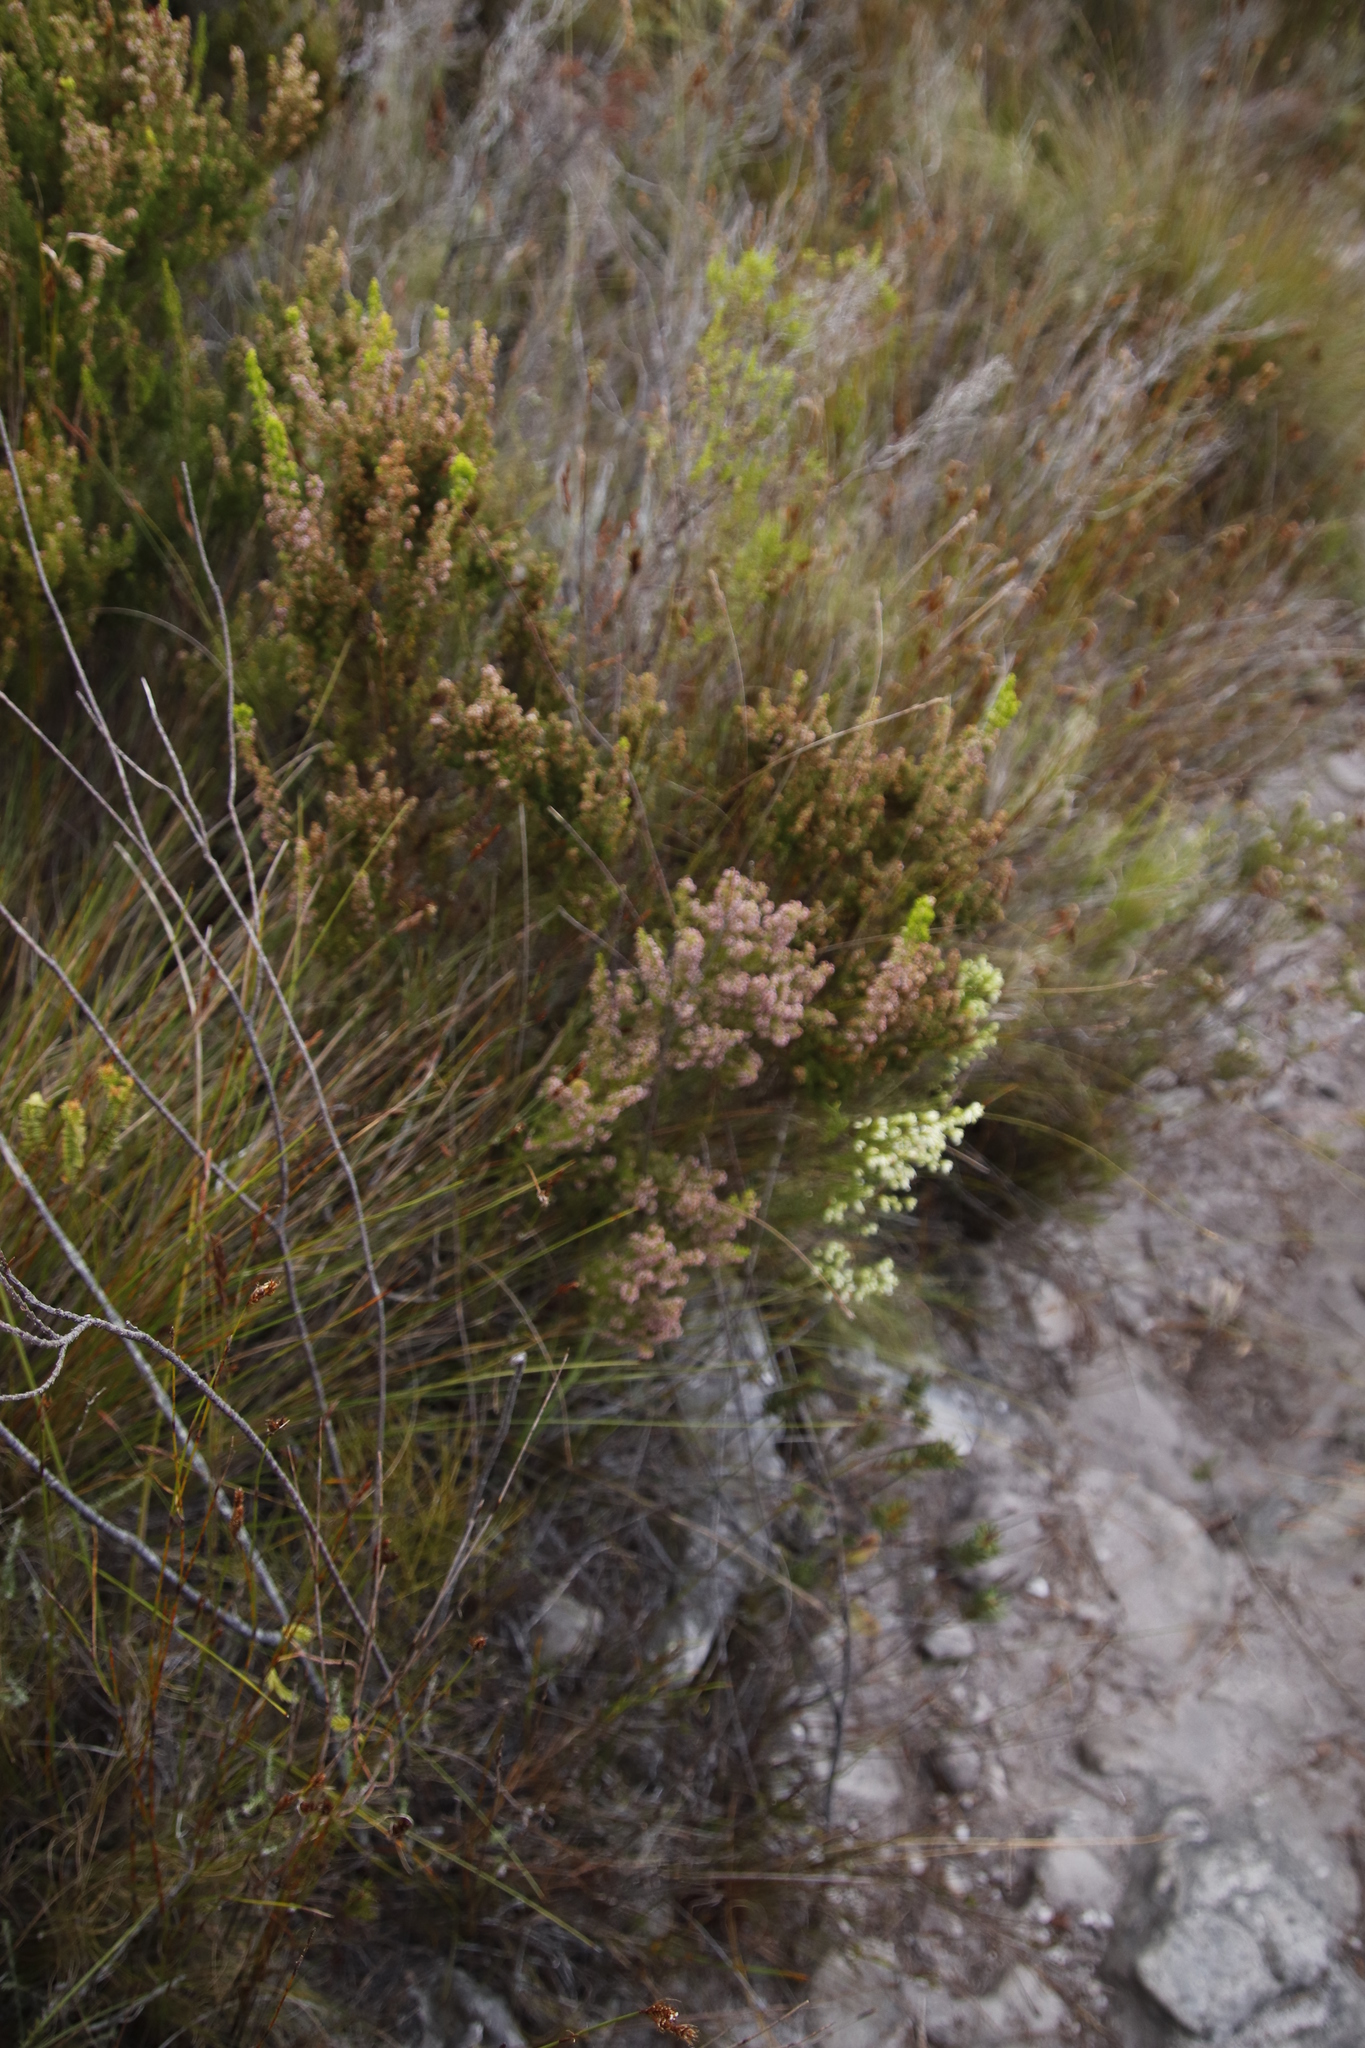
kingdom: Plantae
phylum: Tracheophyta
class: Magnoliopsida
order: Ericales
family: Ericaceae
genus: Erica
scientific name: Erica hispidula
